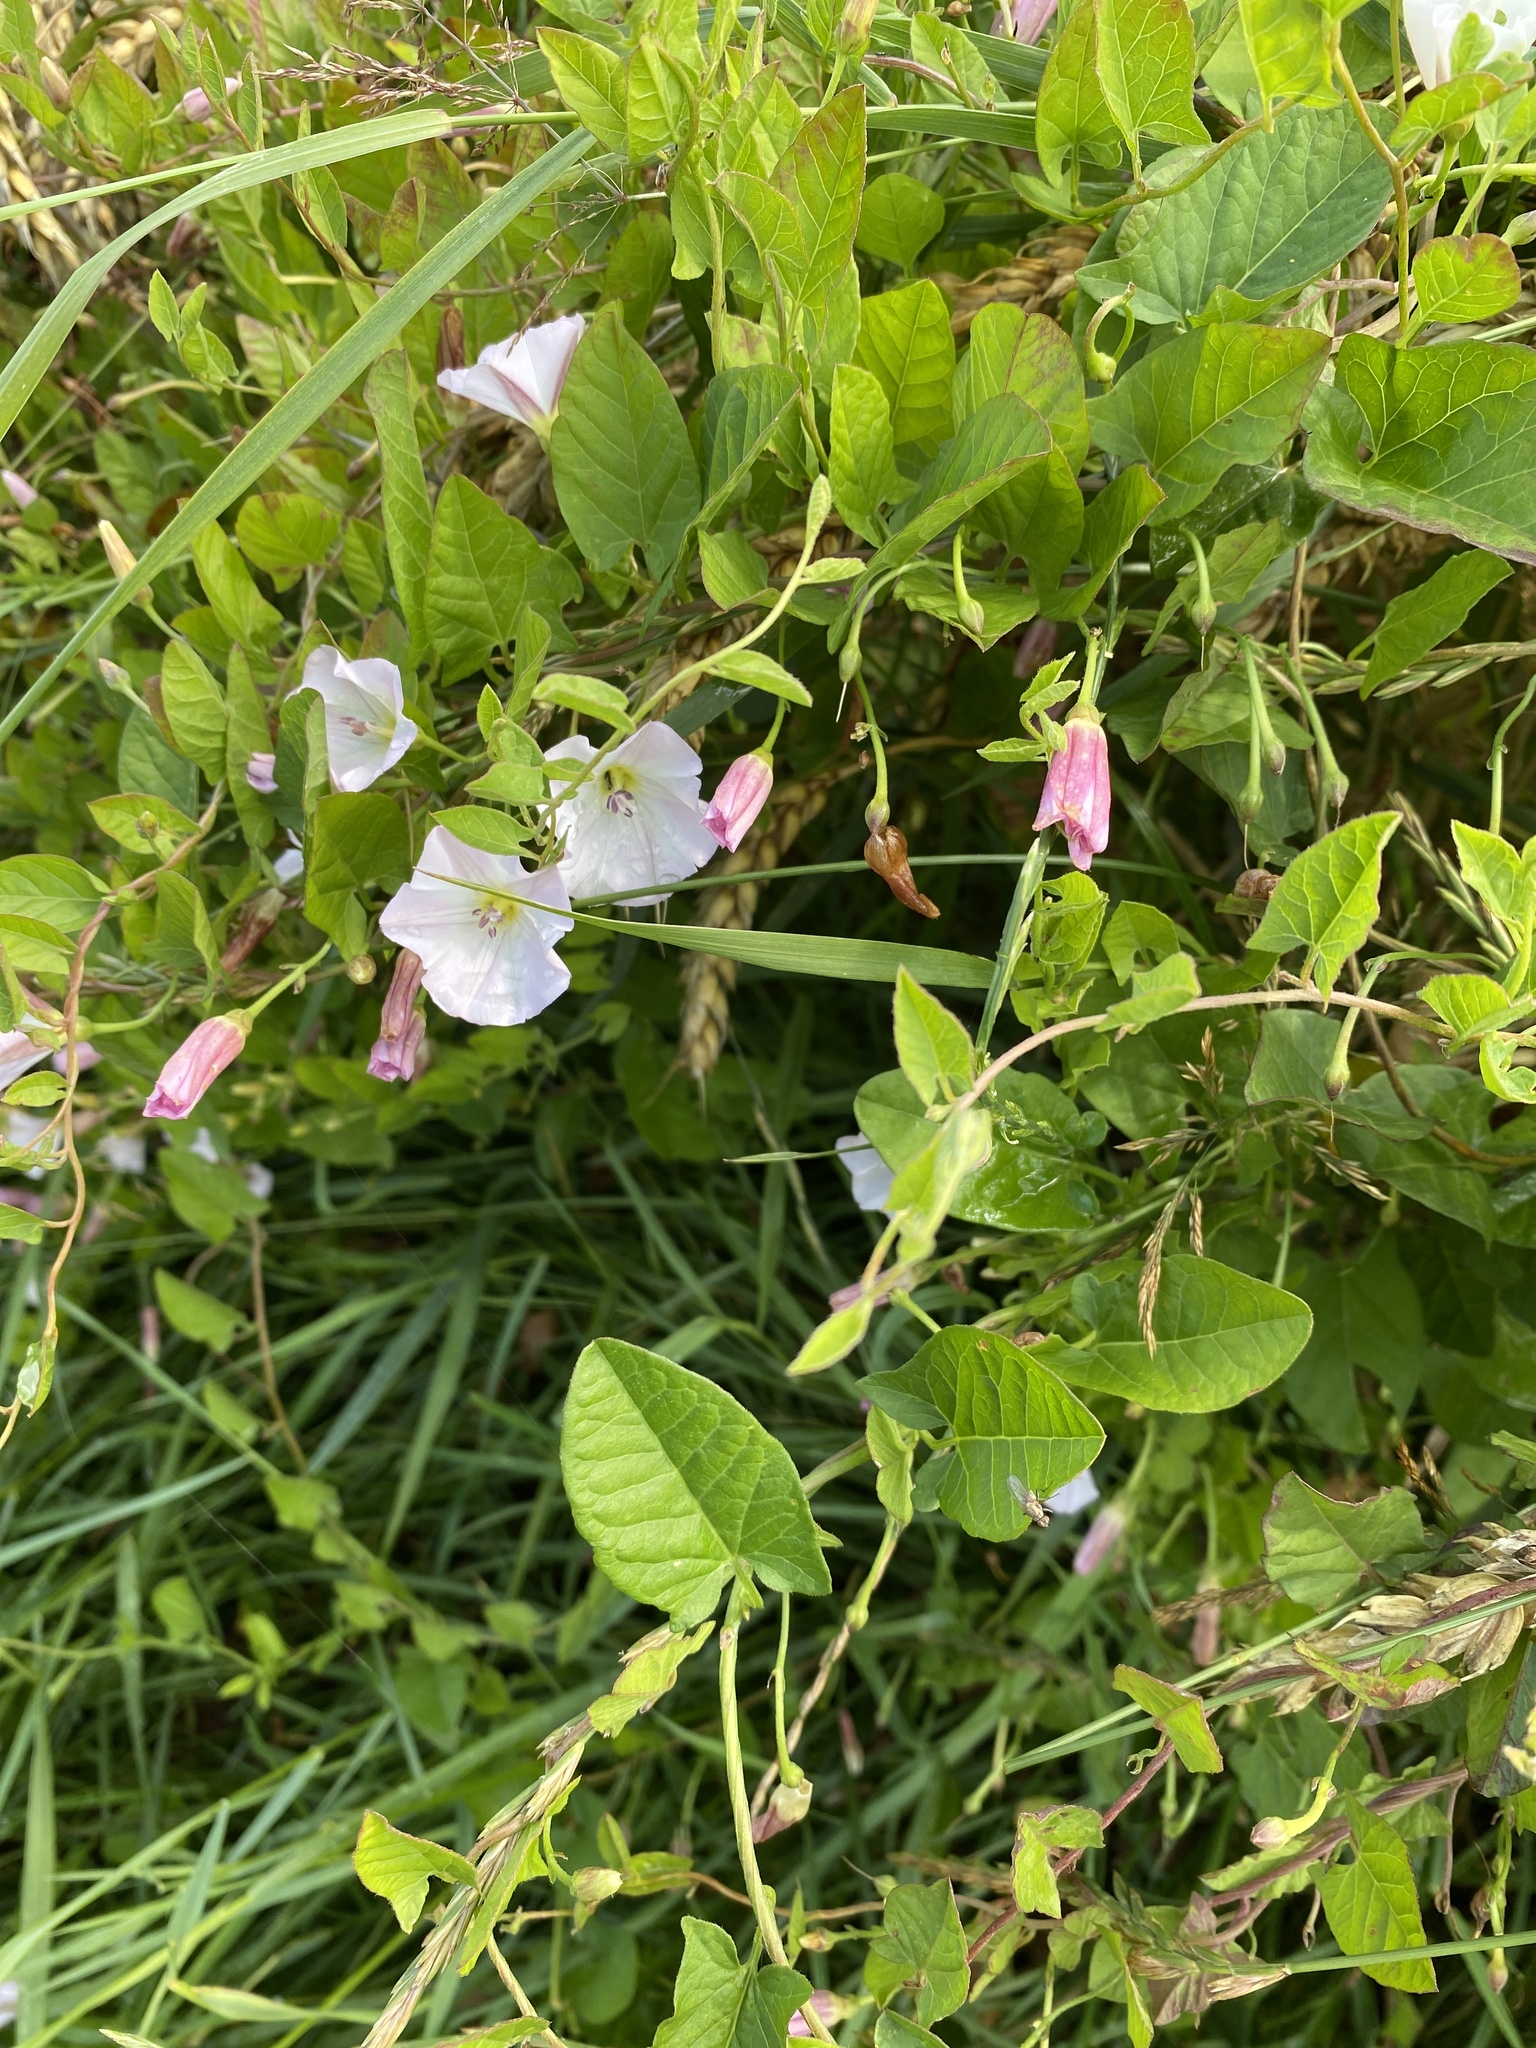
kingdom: Plantae
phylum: Tracheophyta
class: Magnoliopsida
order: Solanales
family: Convolvulaceae
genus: Convolvulus
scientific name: Convolvulus arvensis
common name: Field bindweed
